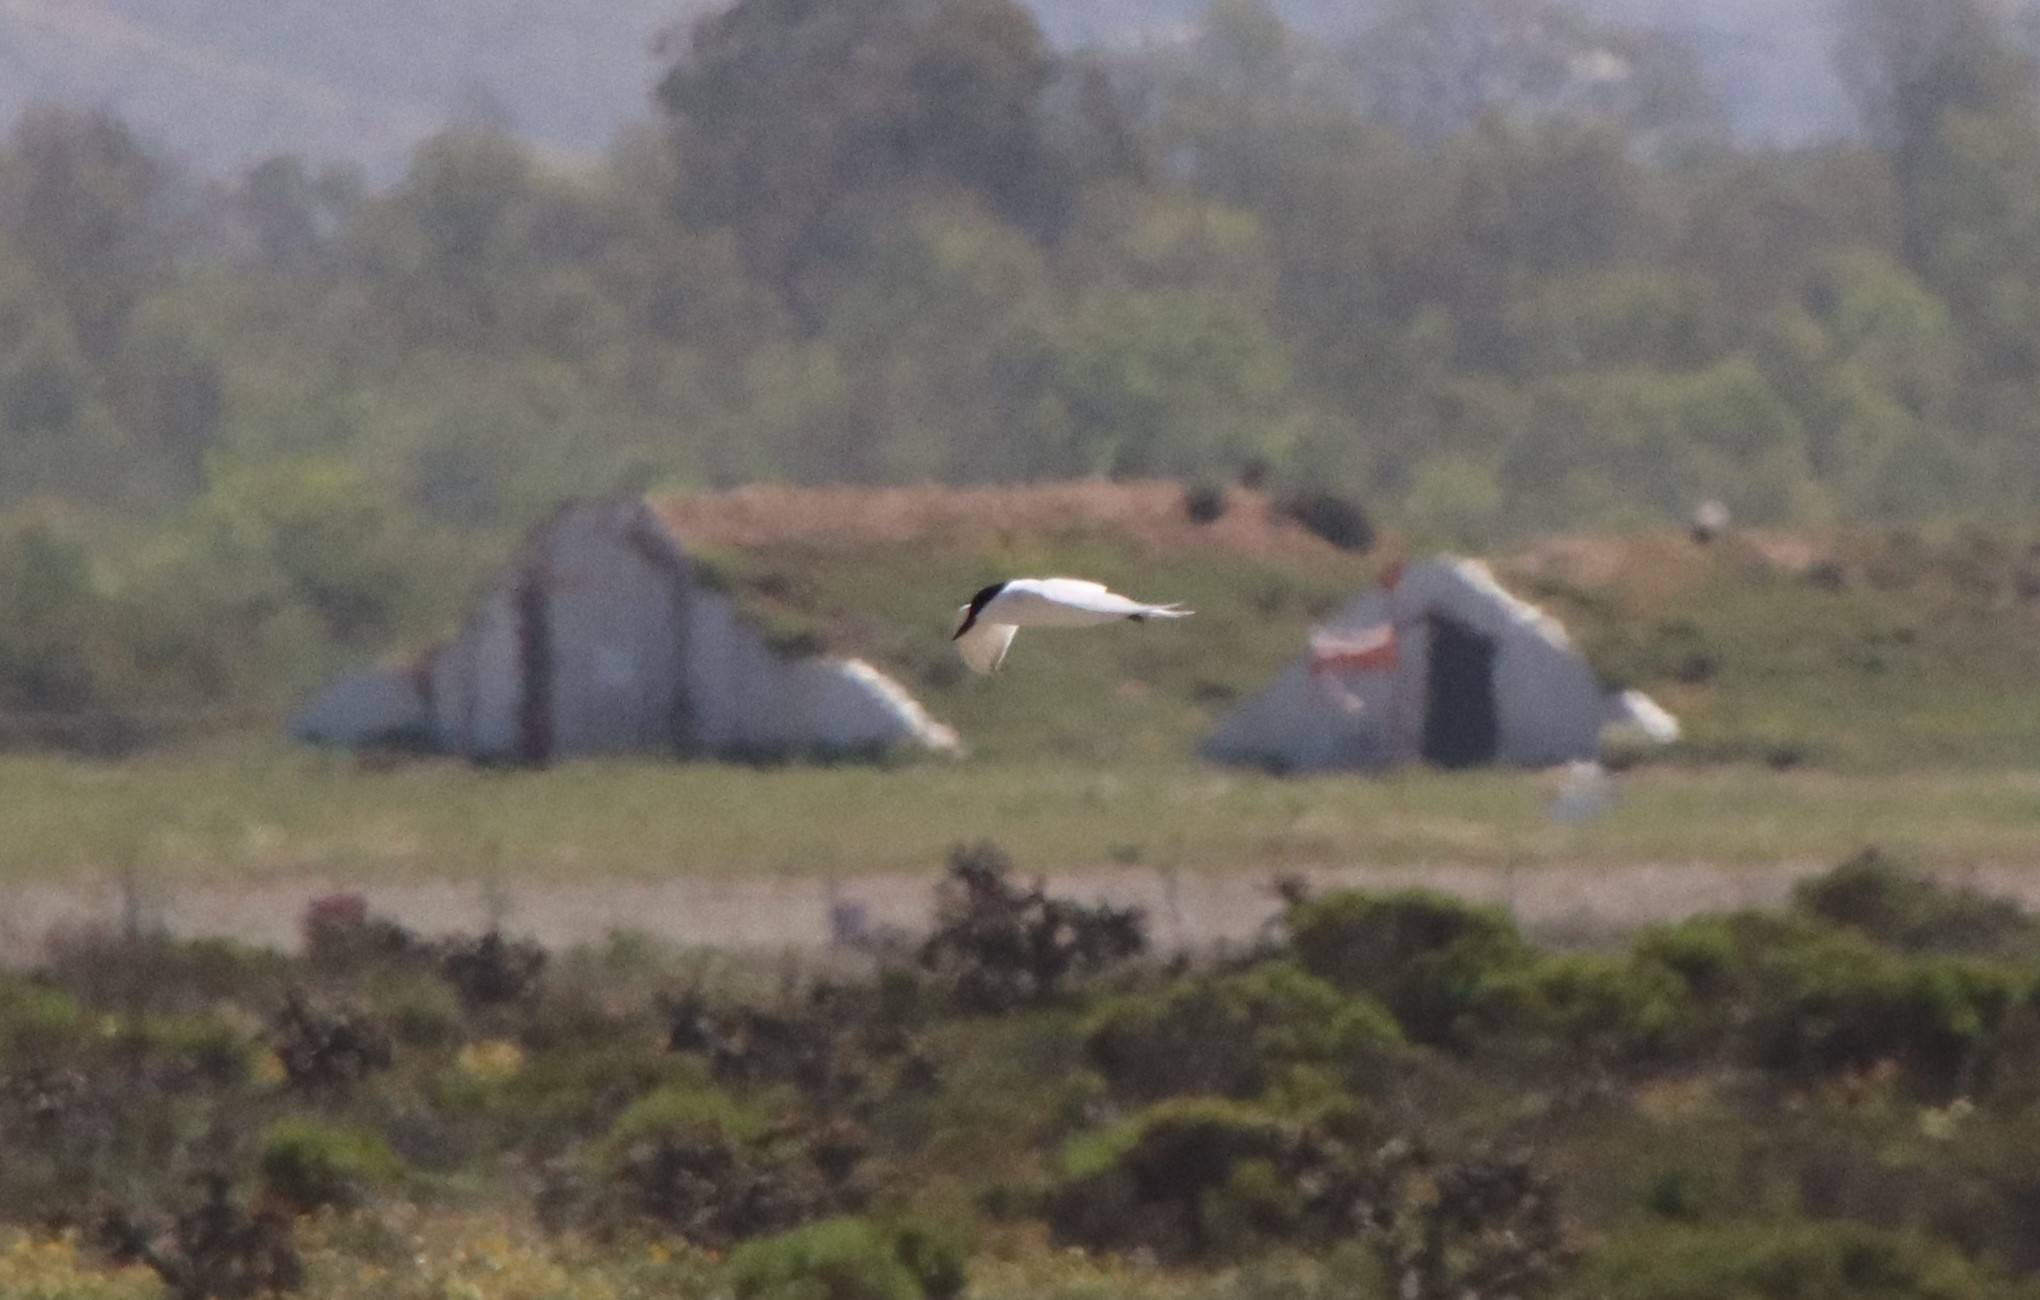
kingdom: Animalia
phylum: Chordata
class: Aves
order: Charadriiformes
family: Laridae
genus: Gelochelidon
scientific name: Gelochelidon nilotica
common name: Gull-billed tern
